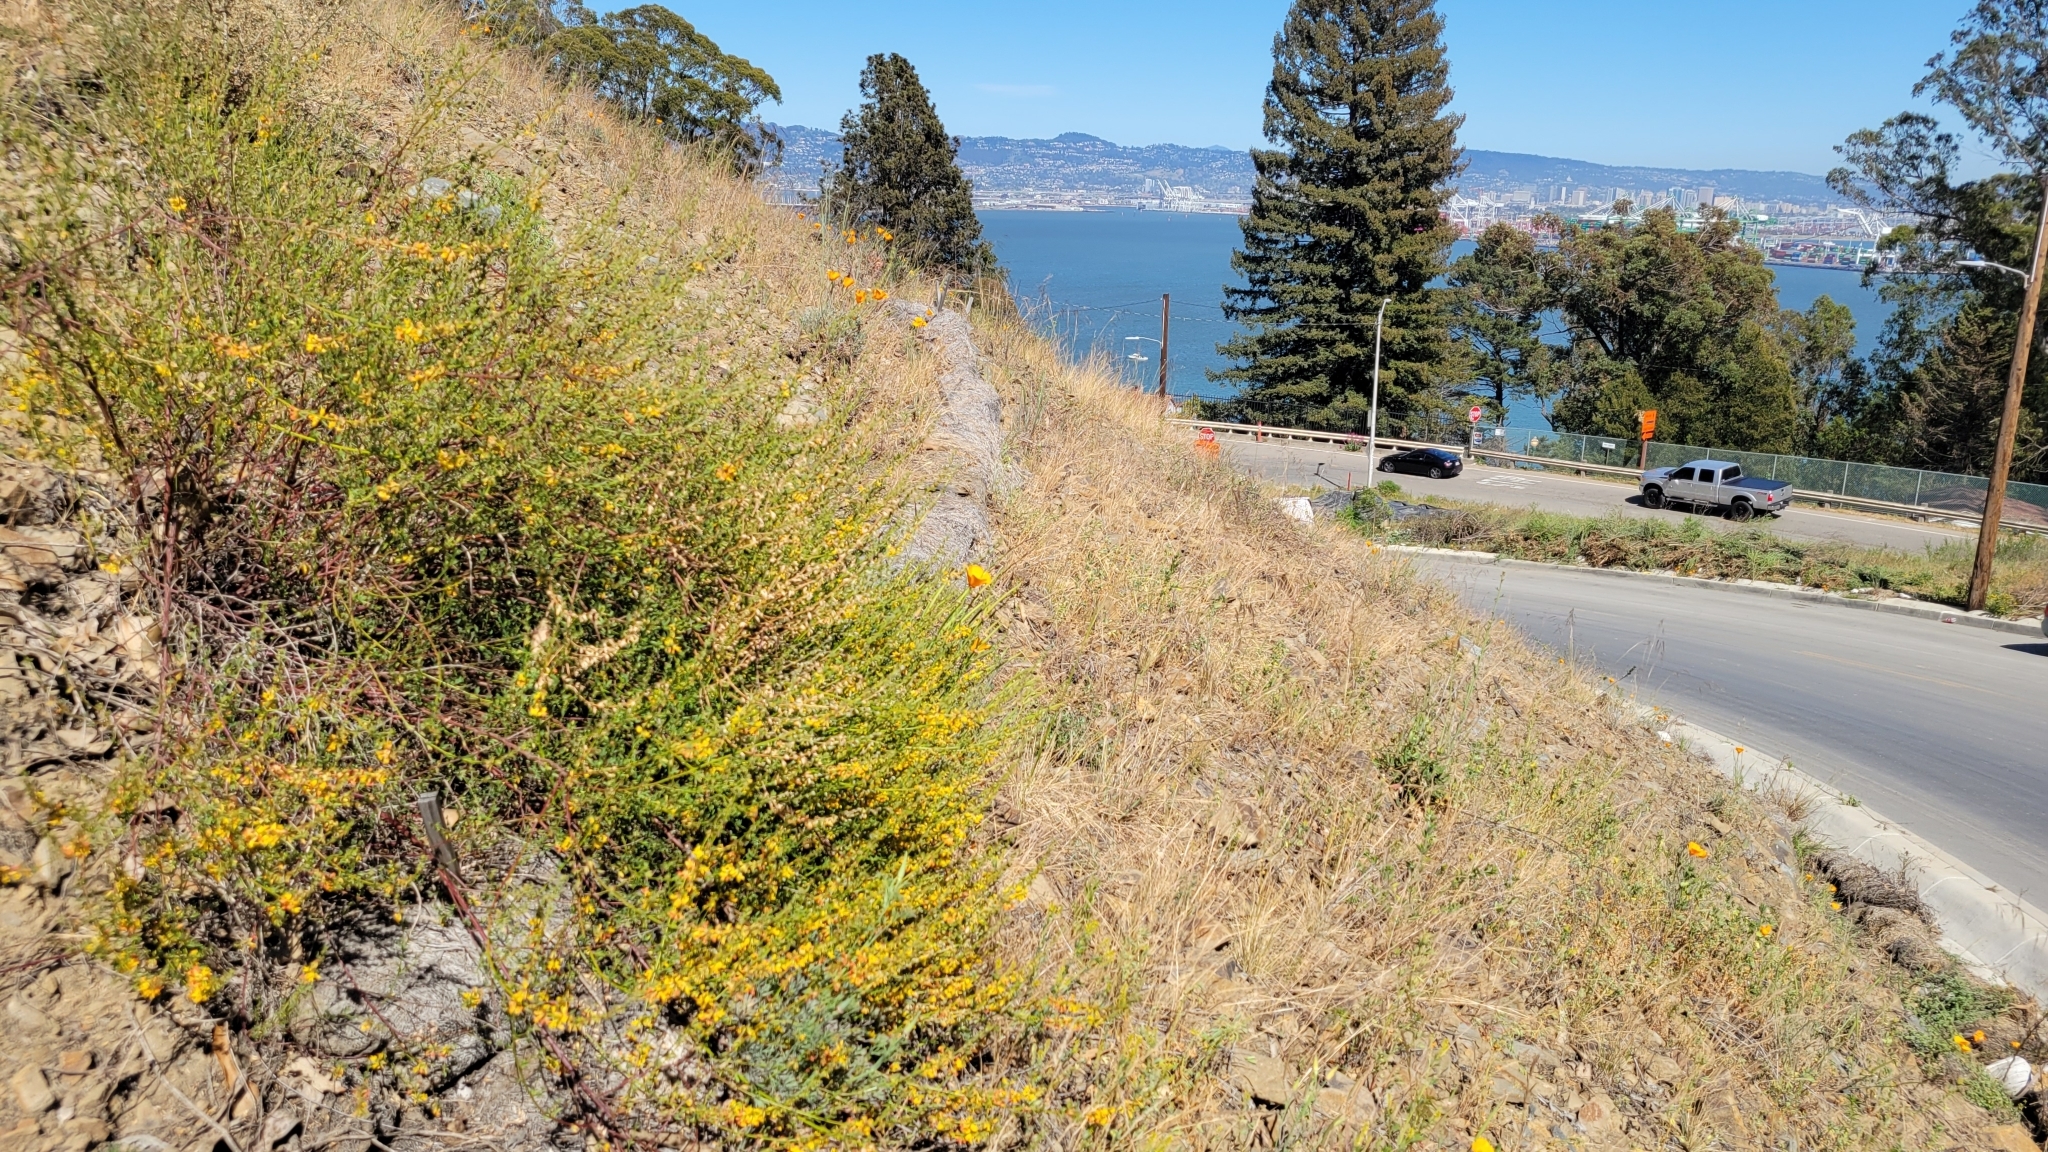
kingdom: Plantae
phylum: Tracheophyta
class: Magnoliopsida
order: Fabales
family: Fabaceae
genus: Acmispon
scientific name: Acmispon glaber
